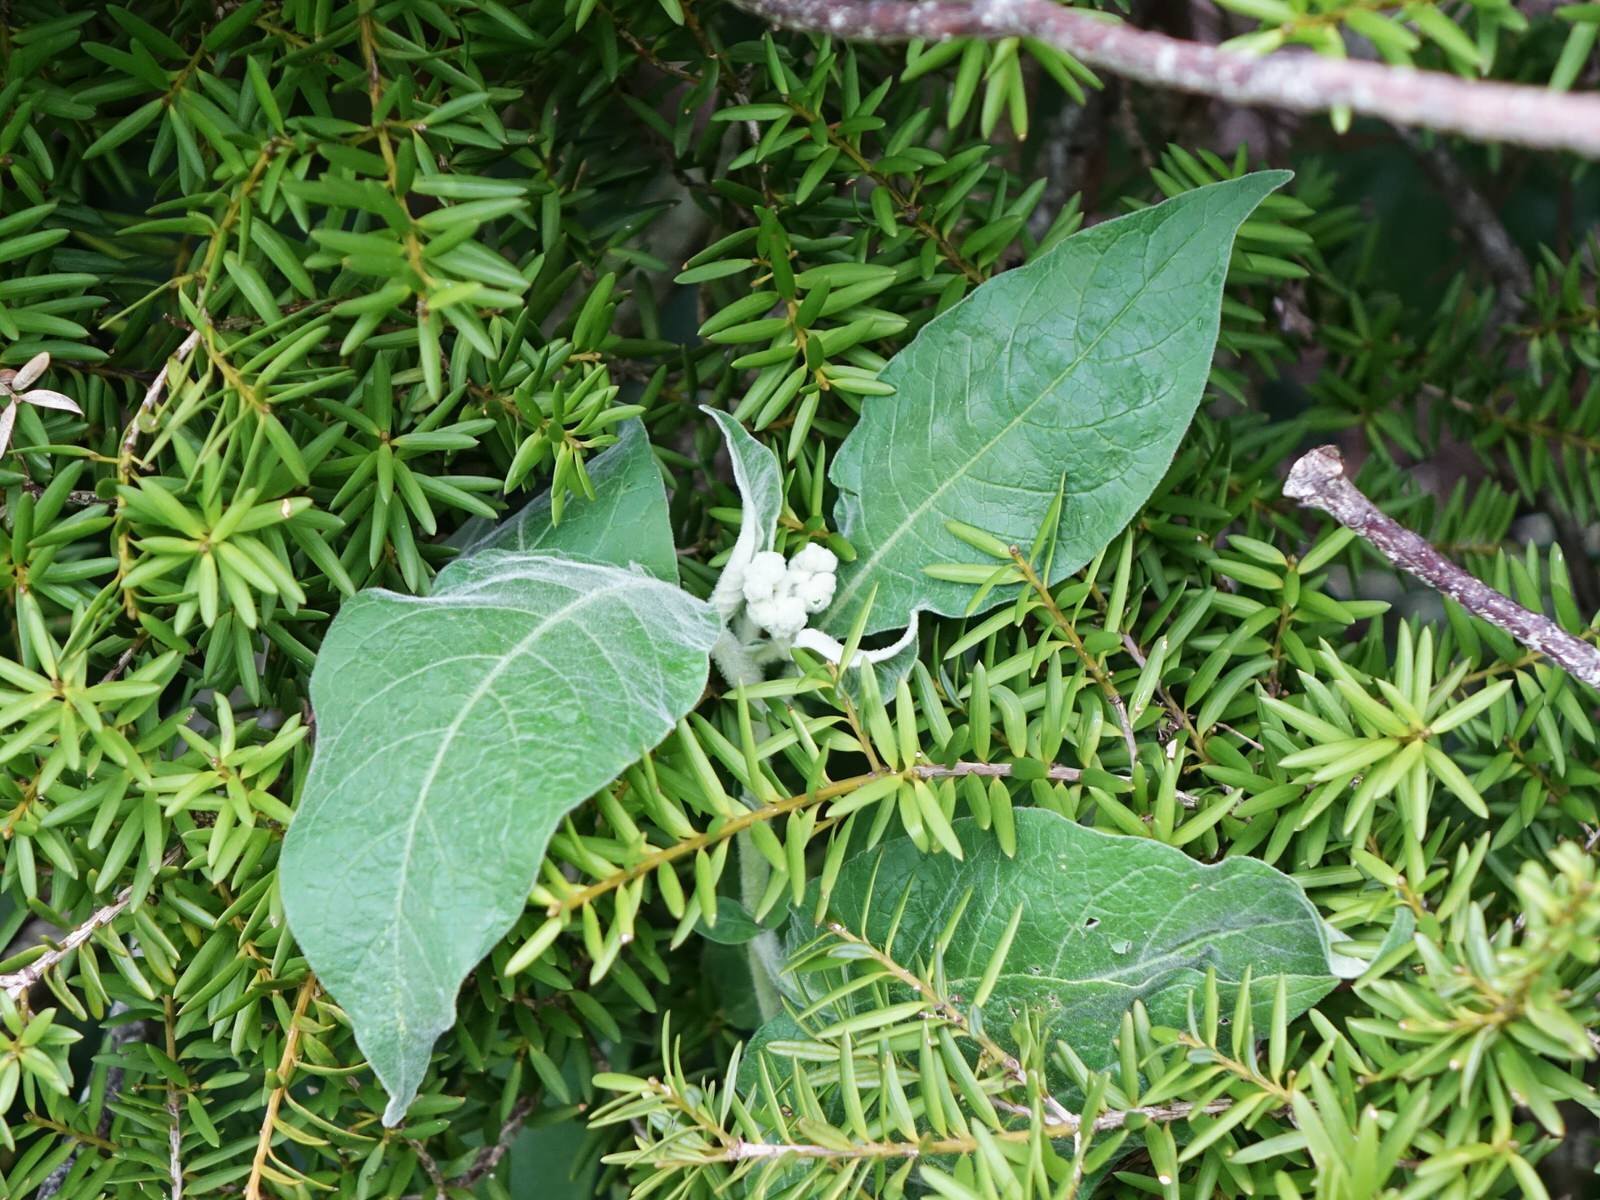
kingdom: Plantae
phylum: Tracheophyta
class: Magnoliopsida
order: Solanales
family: Solanaceae
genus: Solanum
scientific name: Solanum mauritianum
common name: Earleaf nightshade
